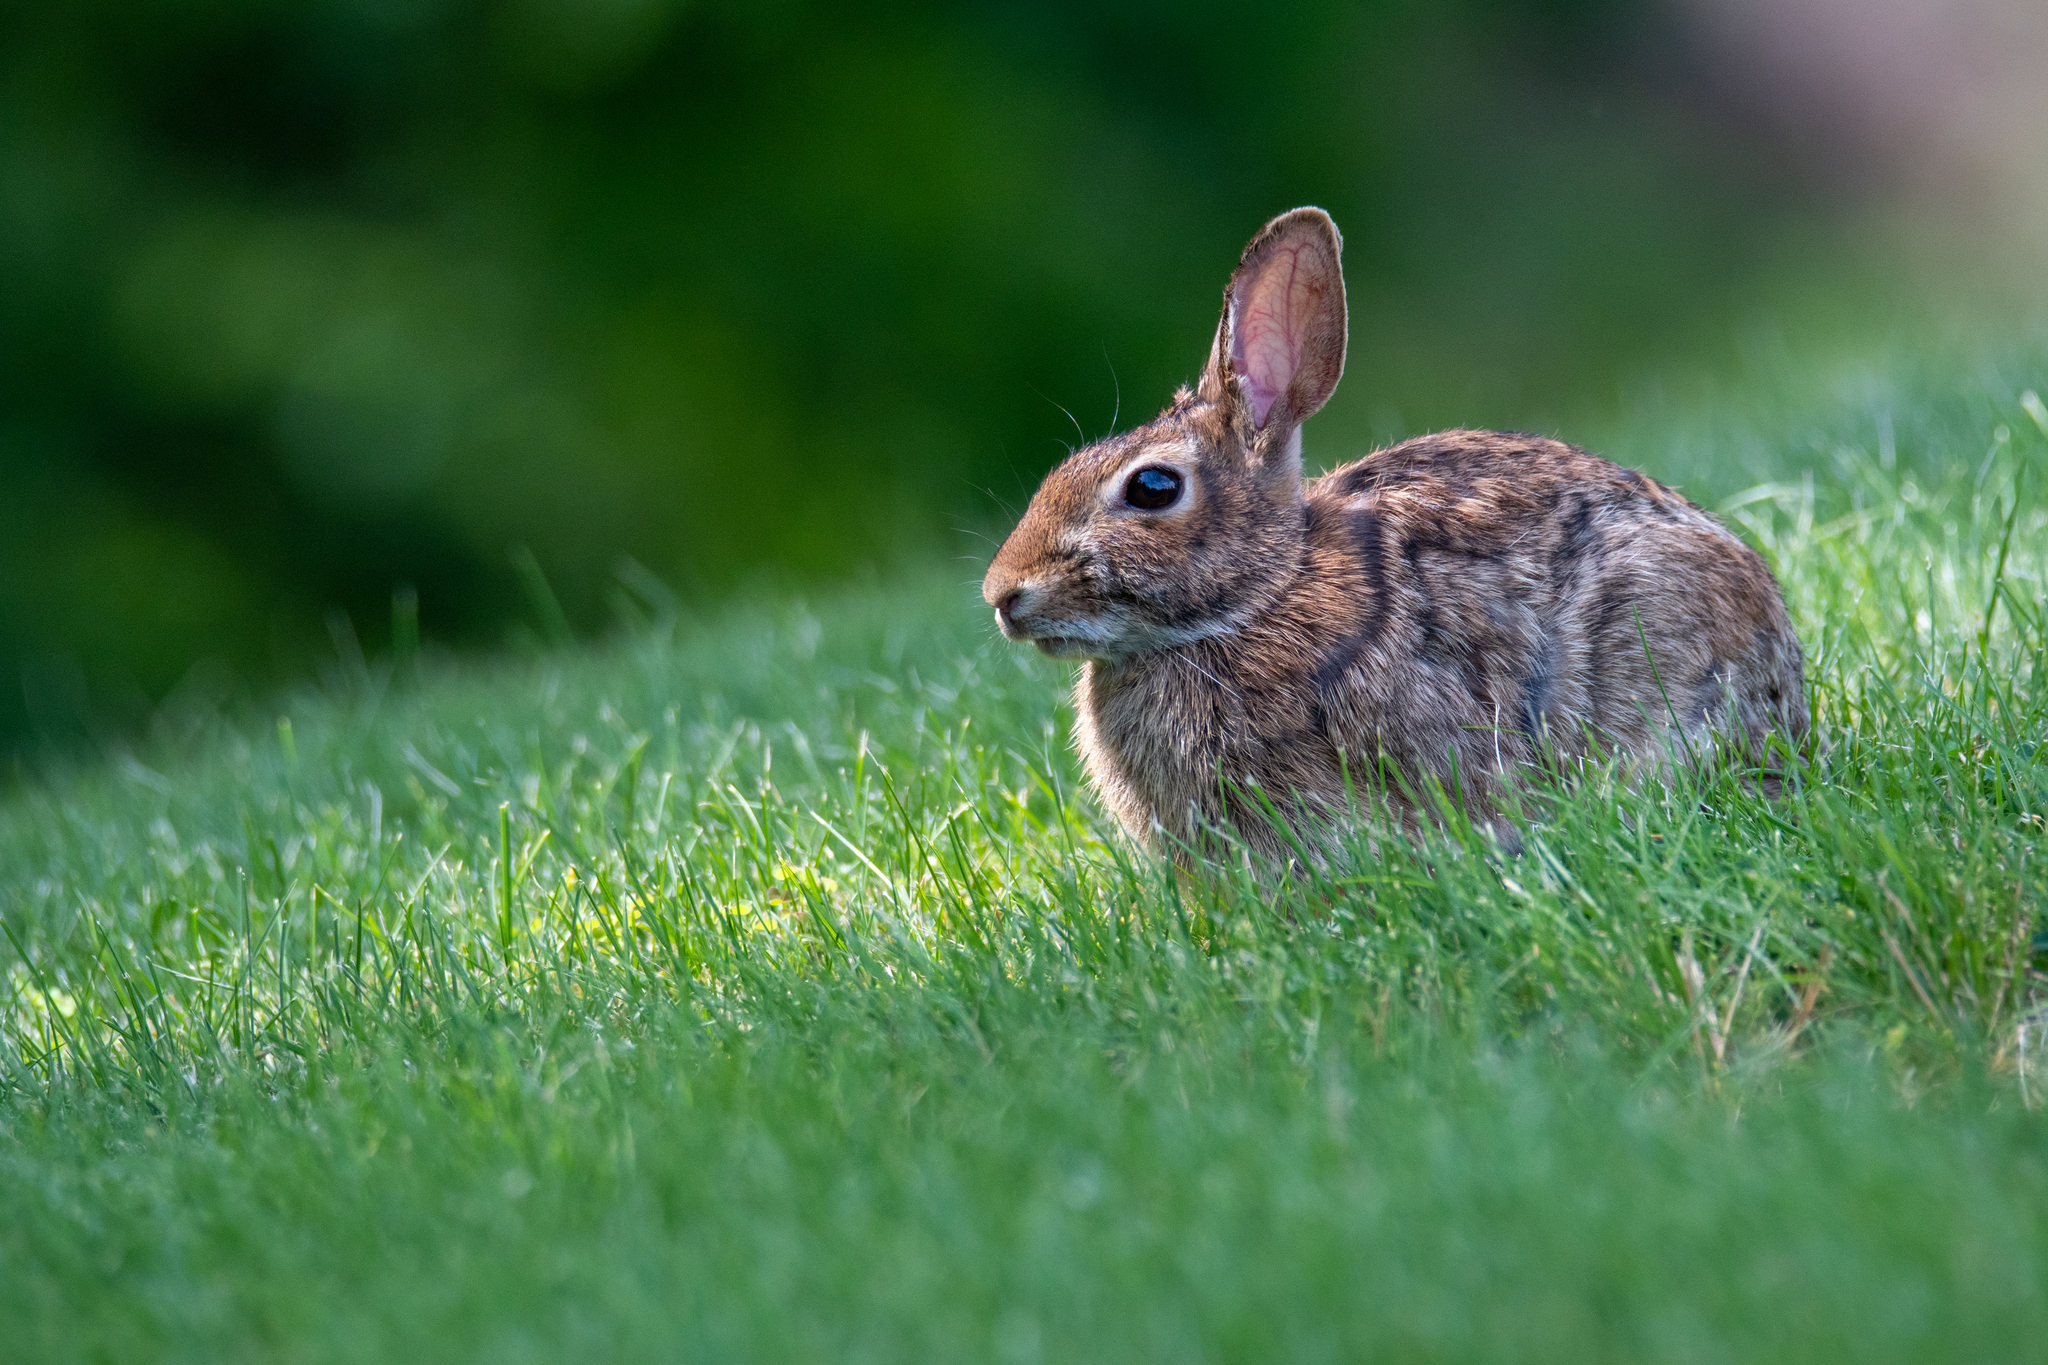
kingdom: Animalia
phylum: Chordata
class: Mammalia
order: Lagomorpha
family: Leporidae
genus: Sylvilagus
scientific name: Sylvilagus floridanus
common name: Eastern cottontail
